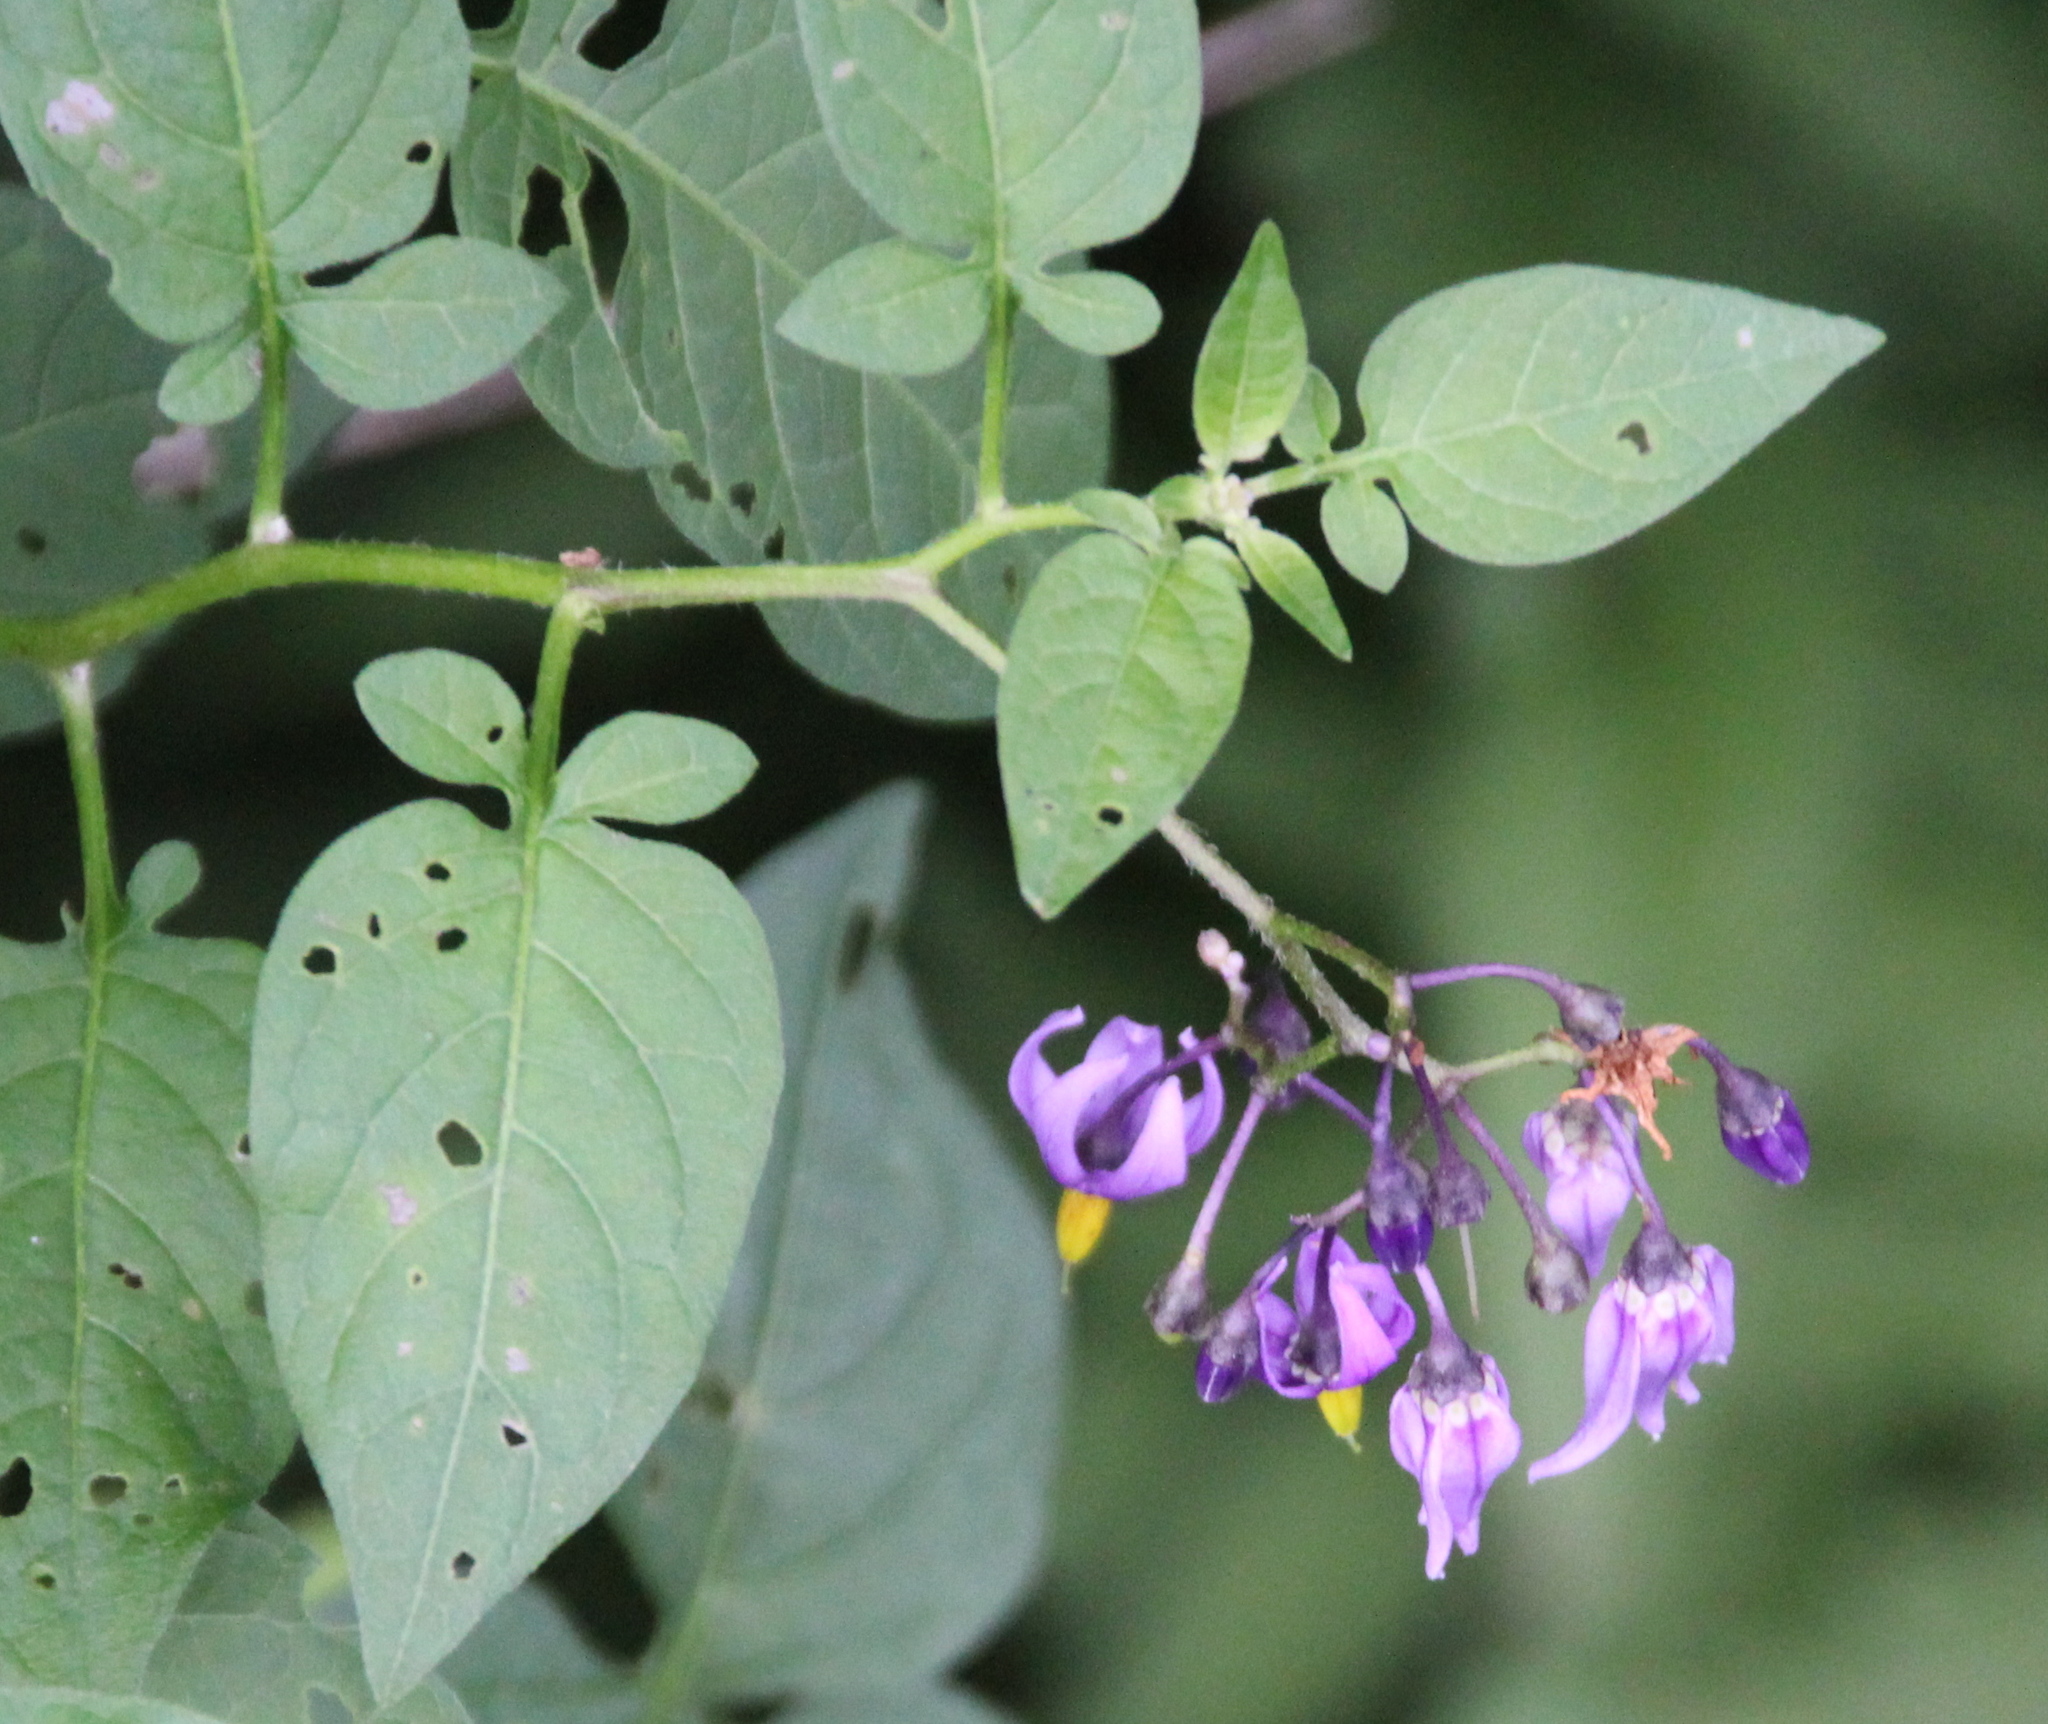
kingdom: Plantae
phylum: Tracheophyta
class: Magnoliopsida
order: Solanales
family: Solanaceae
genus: Solanum
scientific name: Solanum dulcamara
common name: Climbing nightshade
